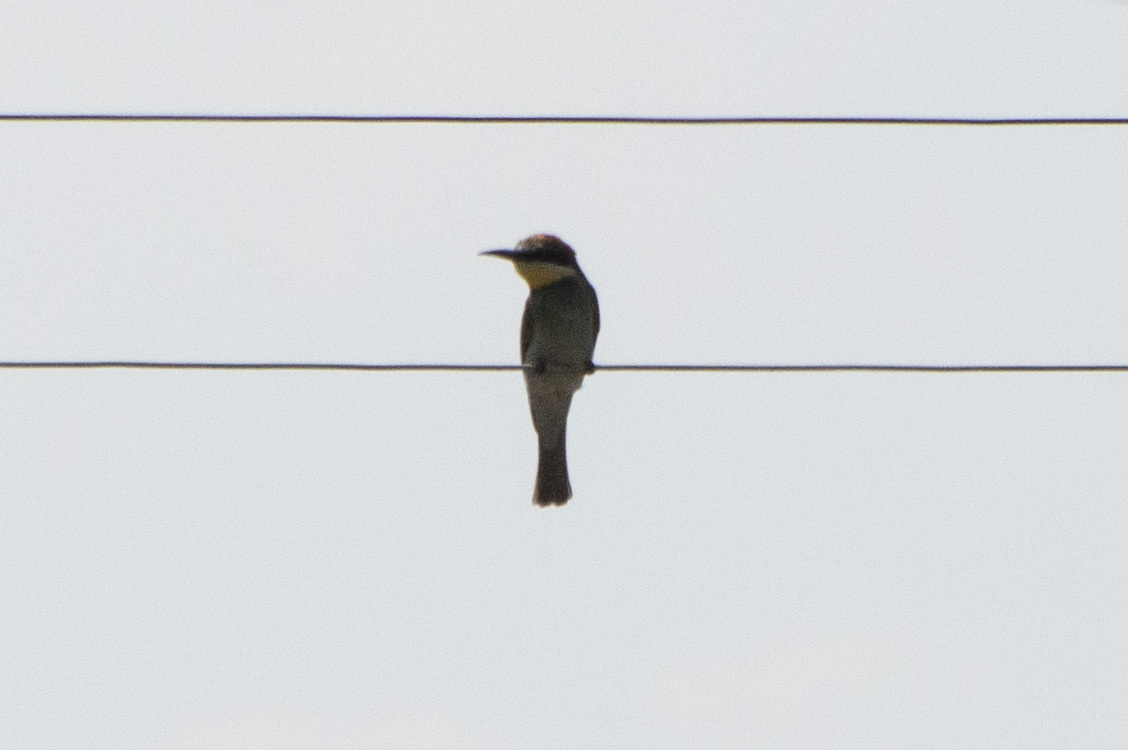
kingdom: Animalia
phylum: Chordata
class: Aves
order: Coraciiformes
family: Meropidae
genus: Merops
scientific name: Merops apiaster
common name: European bee-eater
